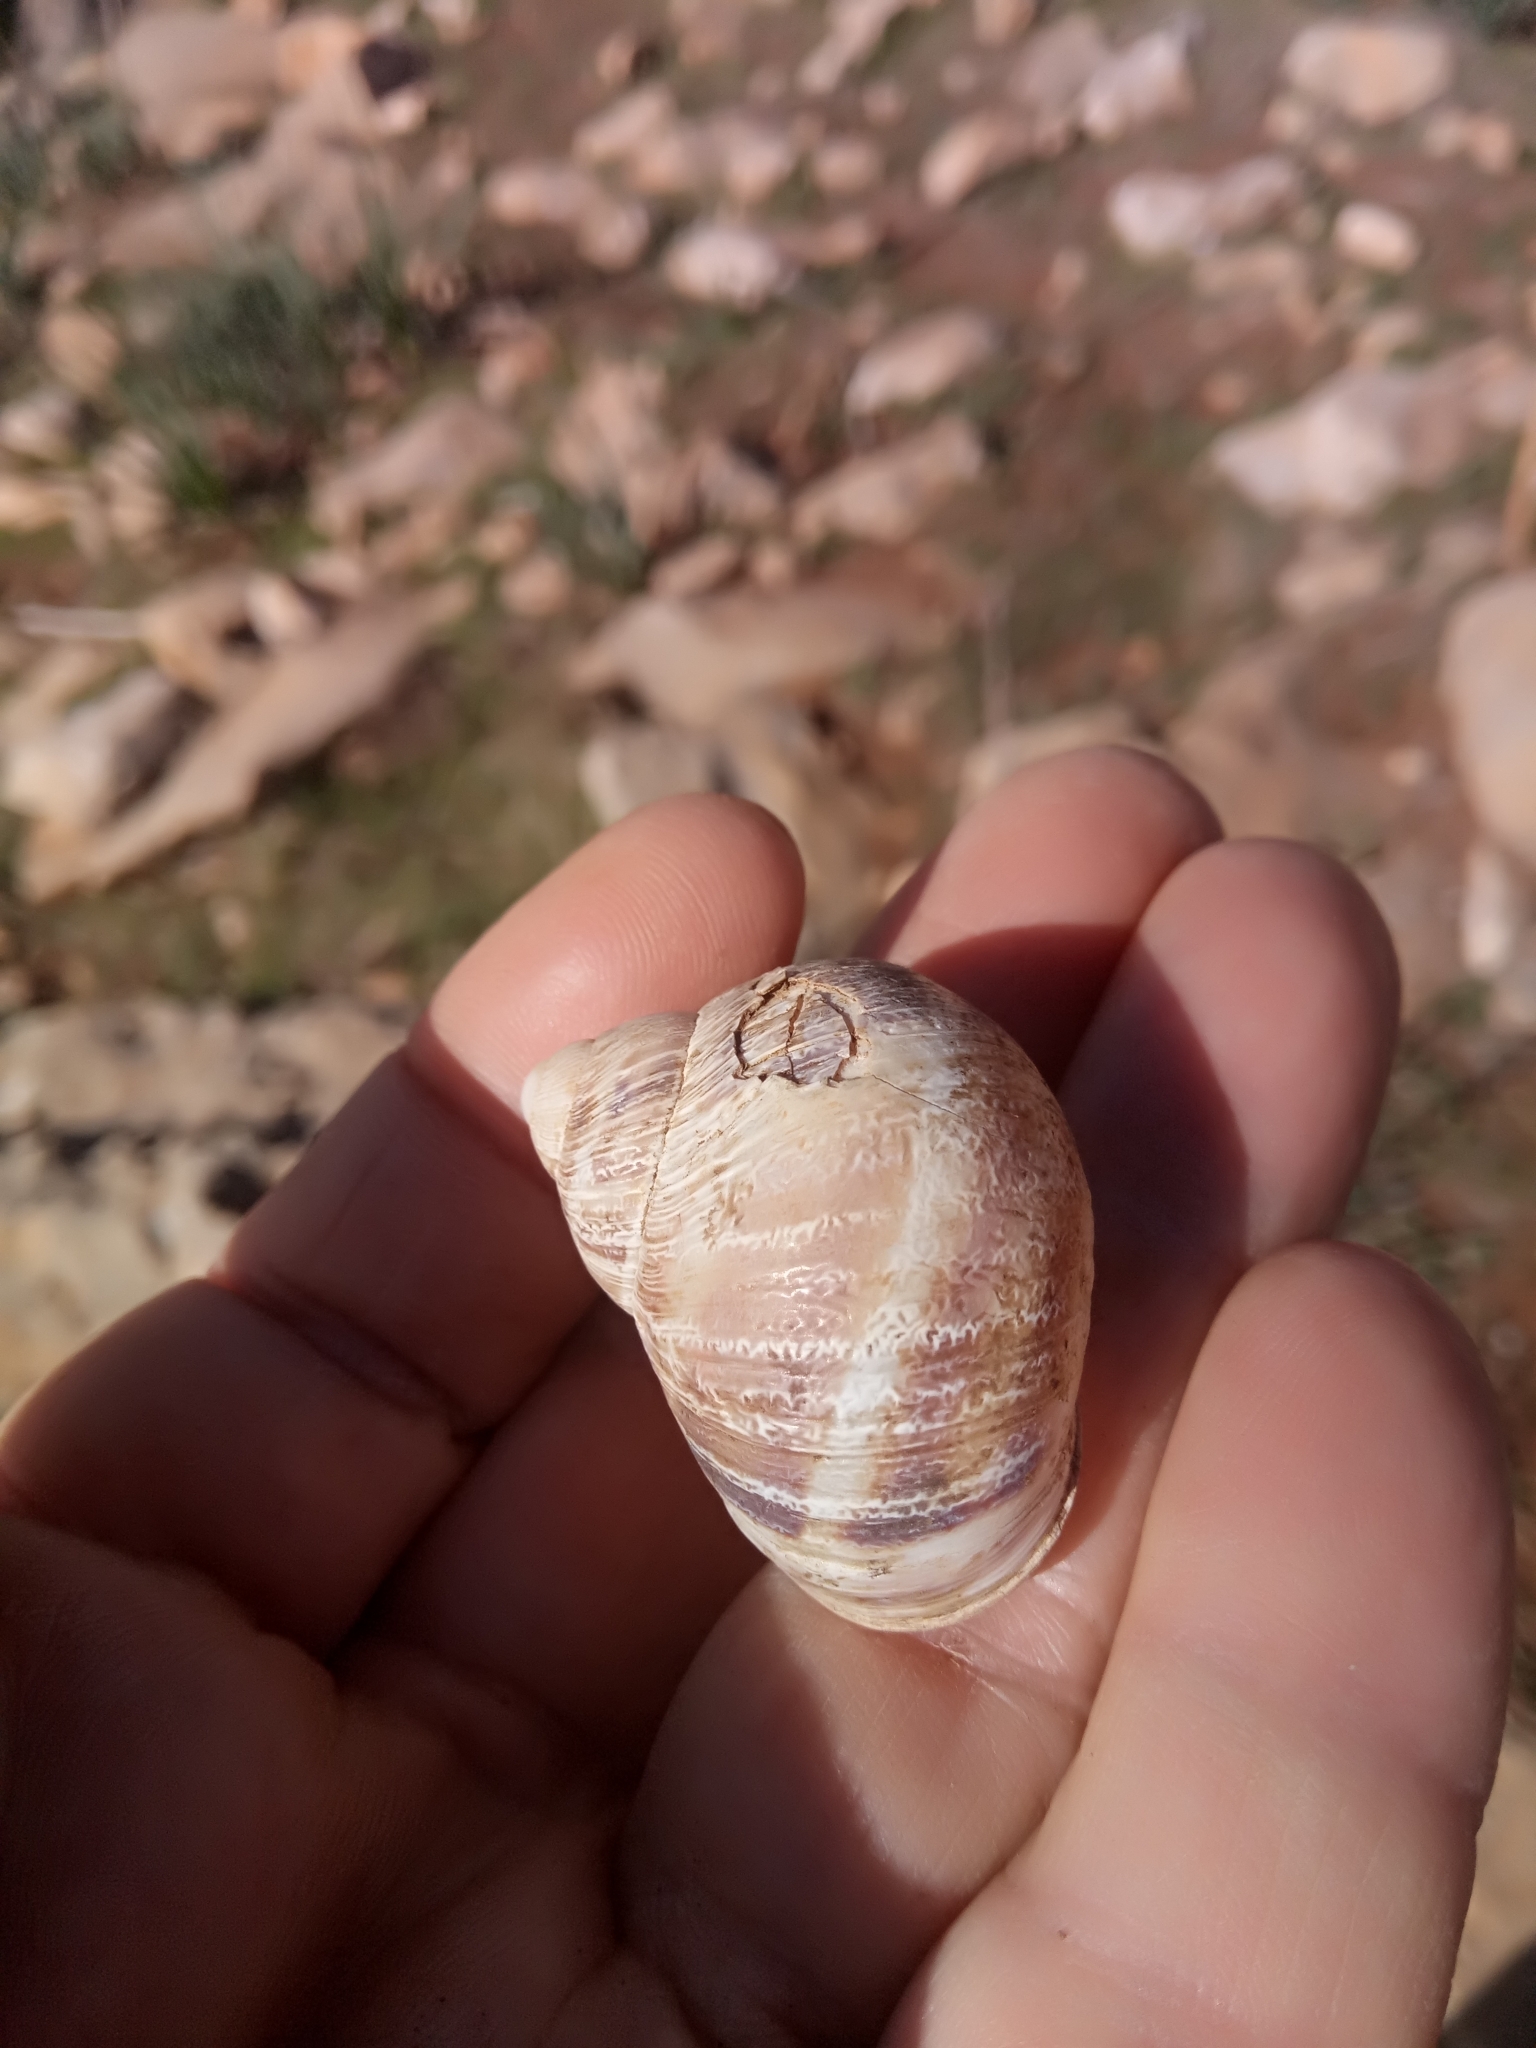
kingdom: Animalia
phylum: Mollusca
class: Gastropoda
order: Stylommatophora
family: Helicidae
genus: Cornu
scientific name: Cornu aspersum
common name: Brown garden snail
